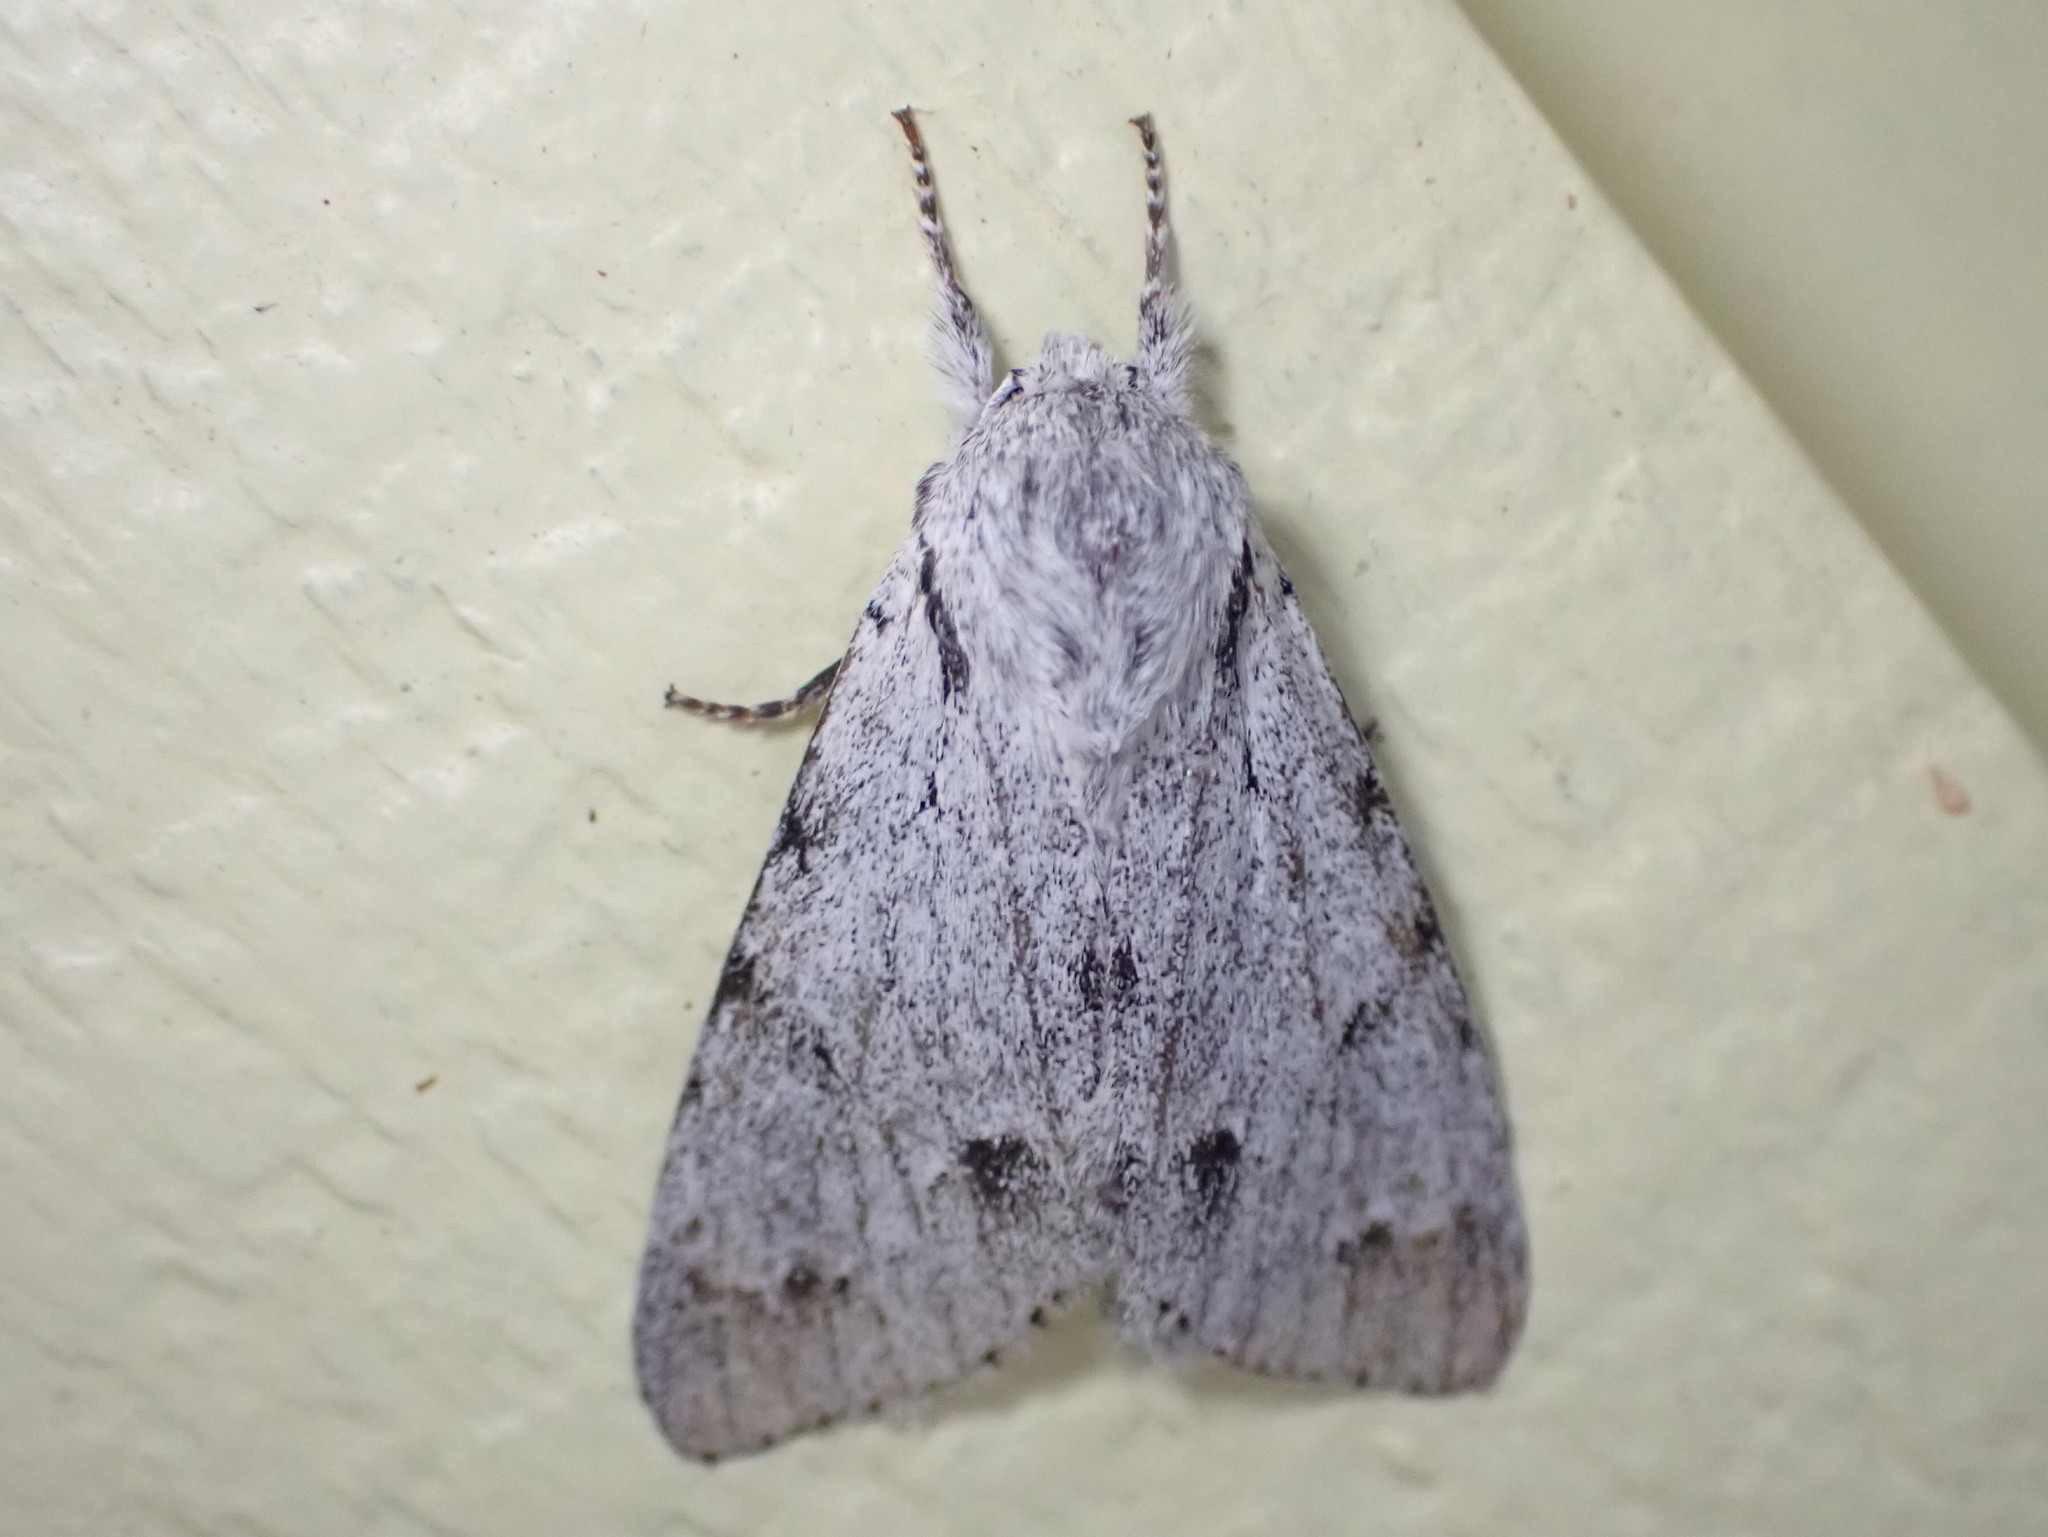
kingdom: Animalia
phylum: Arthropoda
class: Insecta
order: Lepidoptera
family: Noctuidae
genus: Acronicta
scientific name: Acronicta lepusculina
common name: Cottonwood dagger
